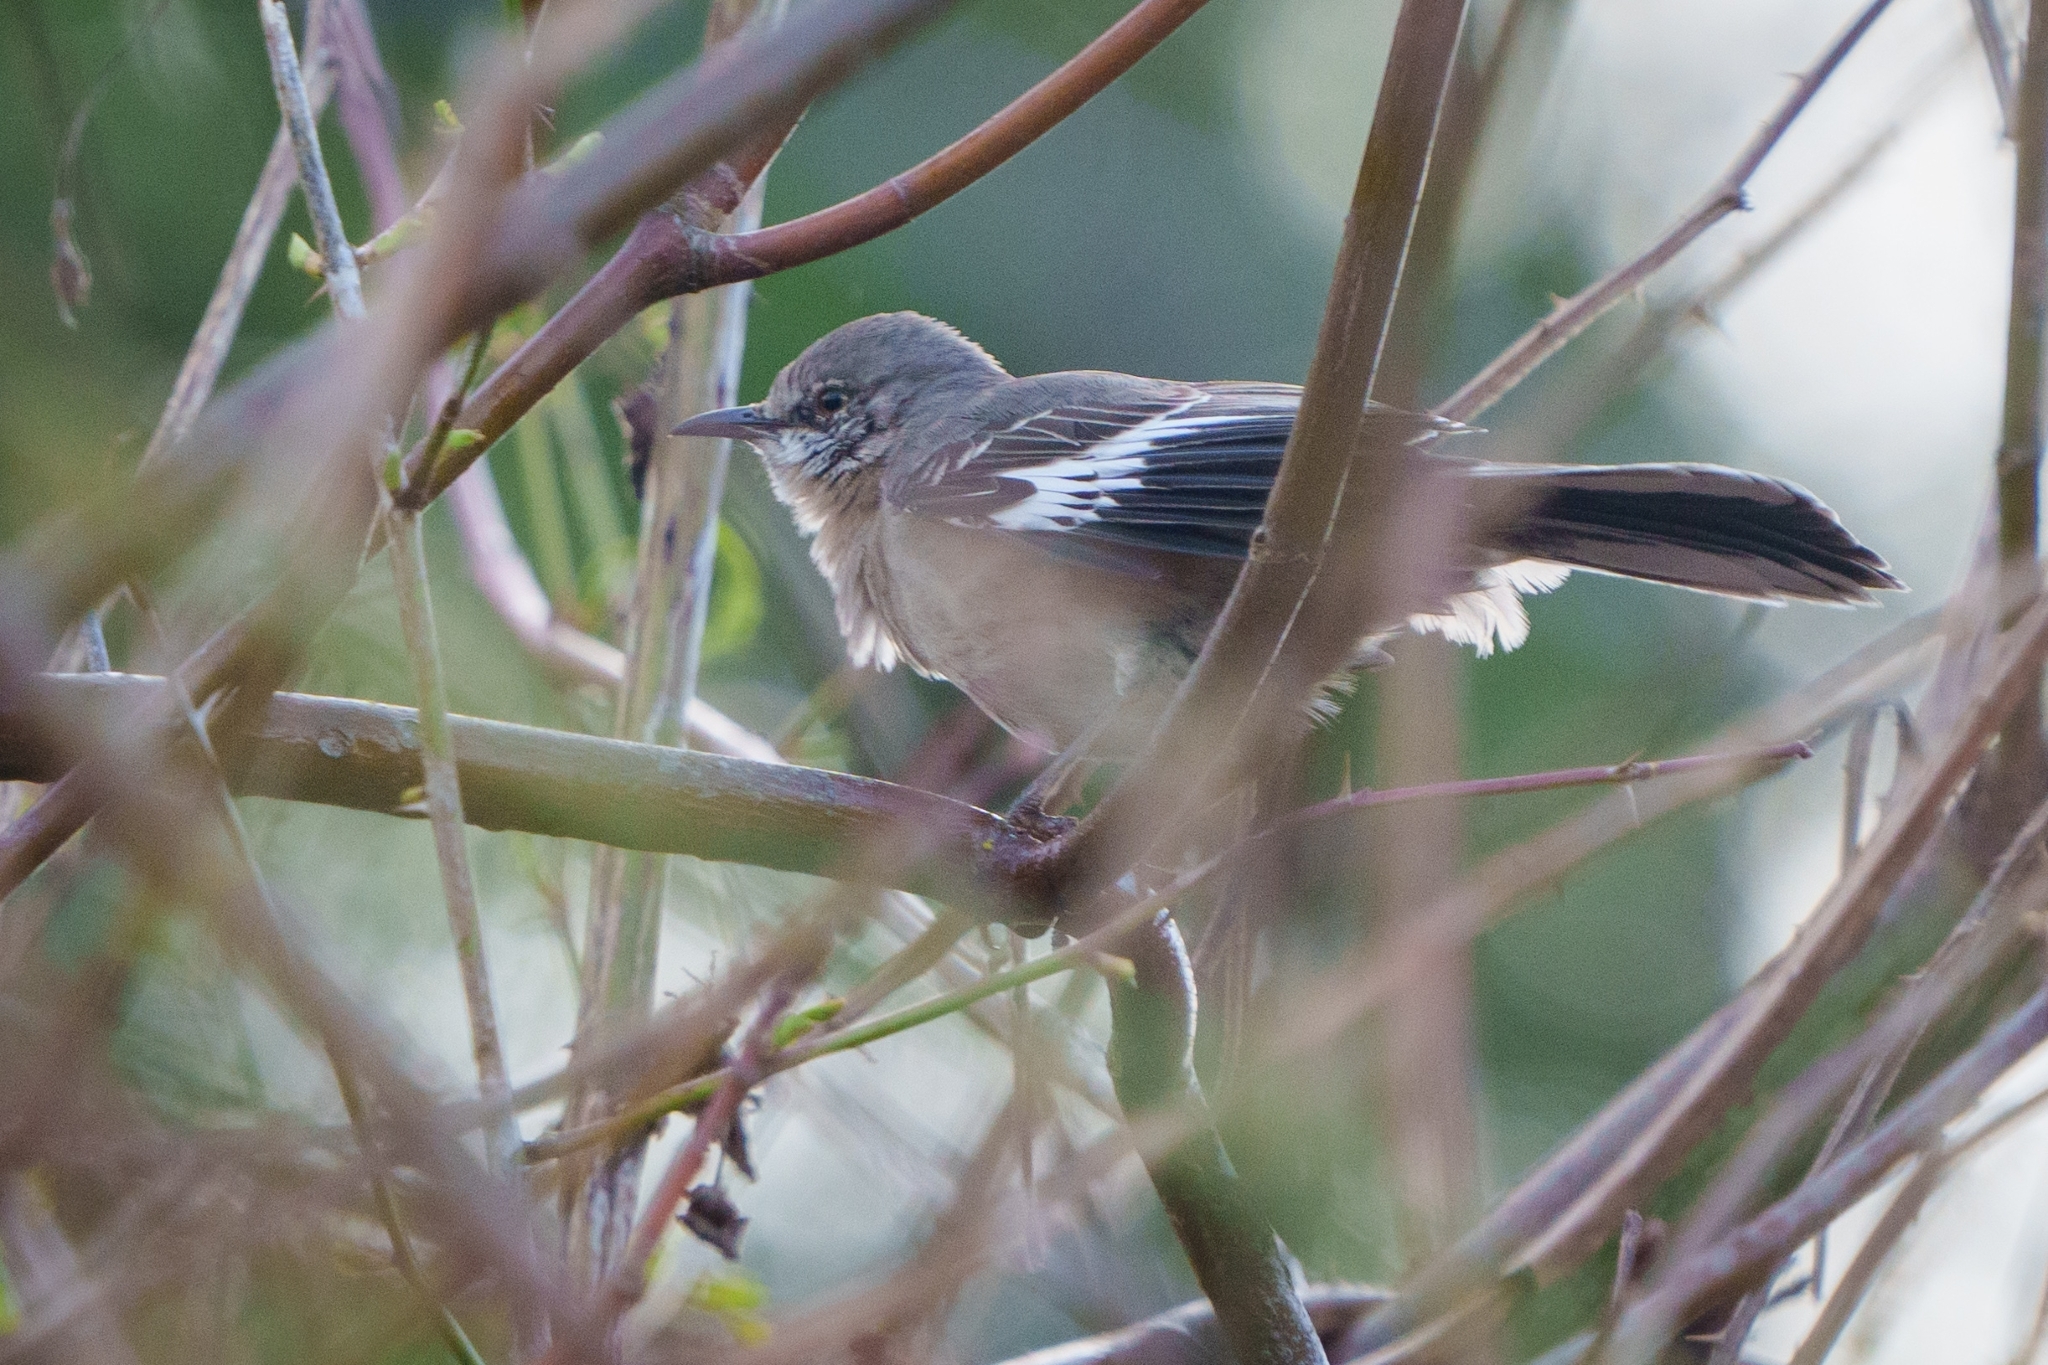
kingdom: Animalia
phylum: Chordata
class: Aves
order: Passeriformes
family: Mimidae
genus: Mimus
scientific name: Mimus polyglottos
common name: Northern mockingbird
